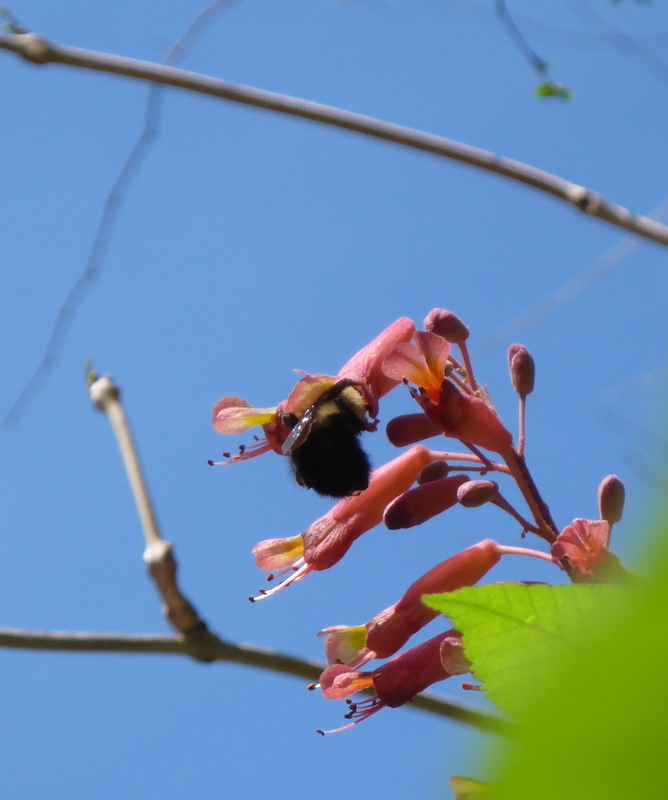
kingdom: Animalia
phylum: Arthropoda
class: Insecta
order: Hymenoptera
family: Apidae
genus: Habropoda
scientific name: Habropoda laboriosa
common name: Southeastern blueberry bee
